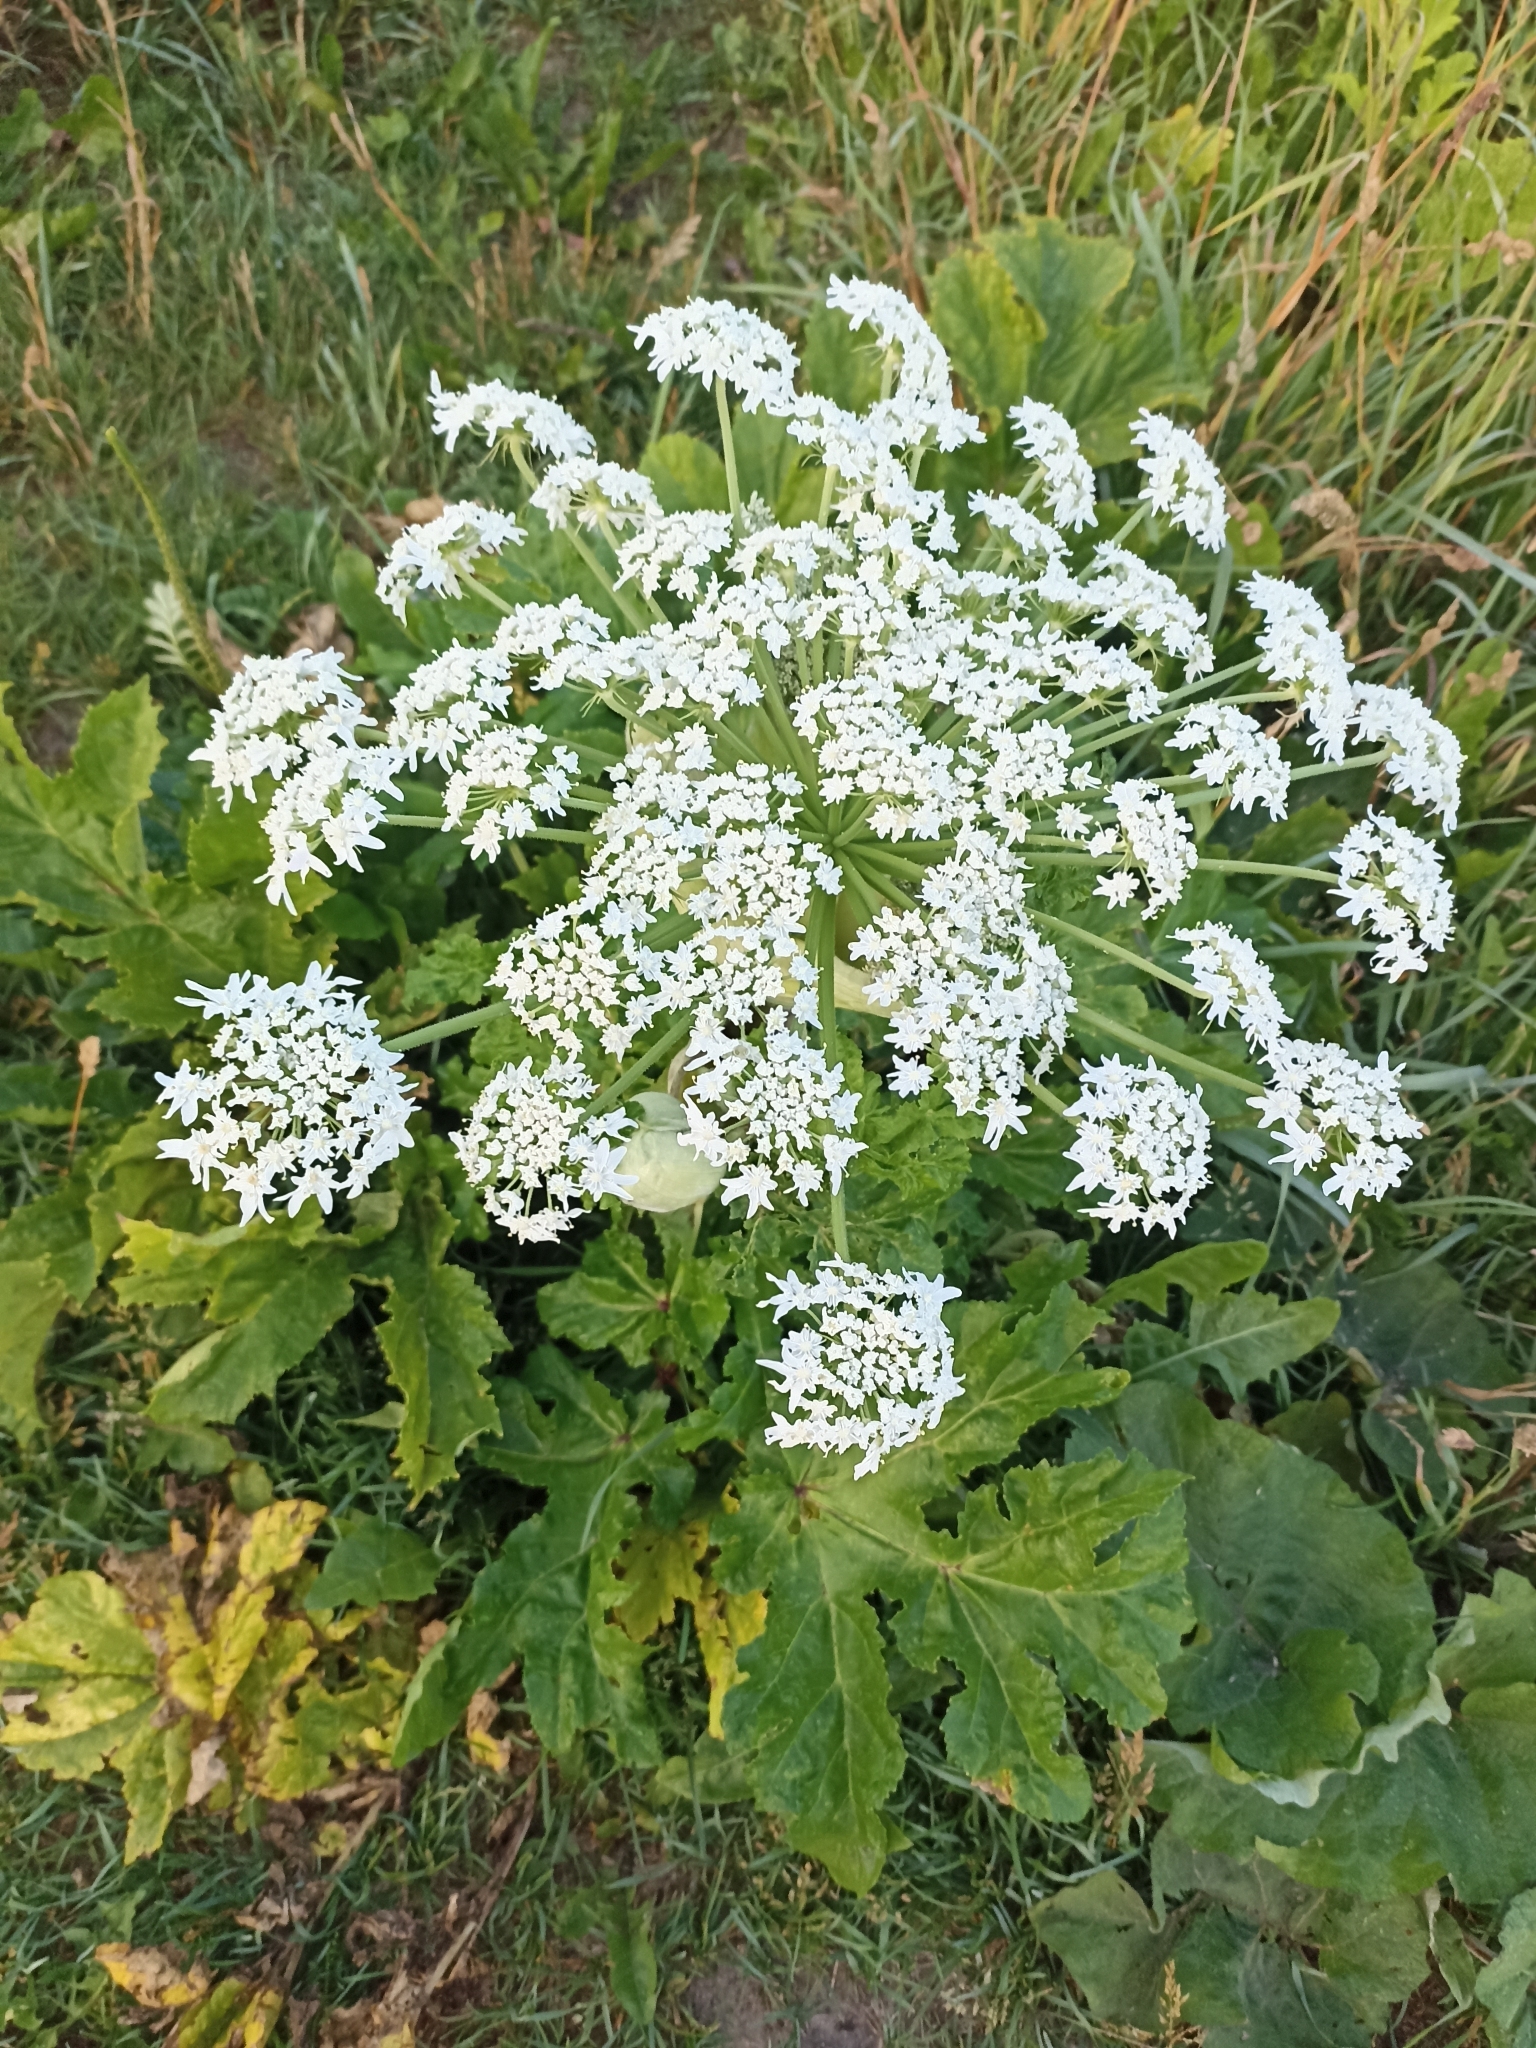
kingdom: Plantae
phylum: Tracheophyta
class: Magnoliopsida
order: Apiales
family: Apiaceae
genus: Heracleum
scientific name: Heracleum sosnowskyi
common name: Sosnowsky's hogweed
